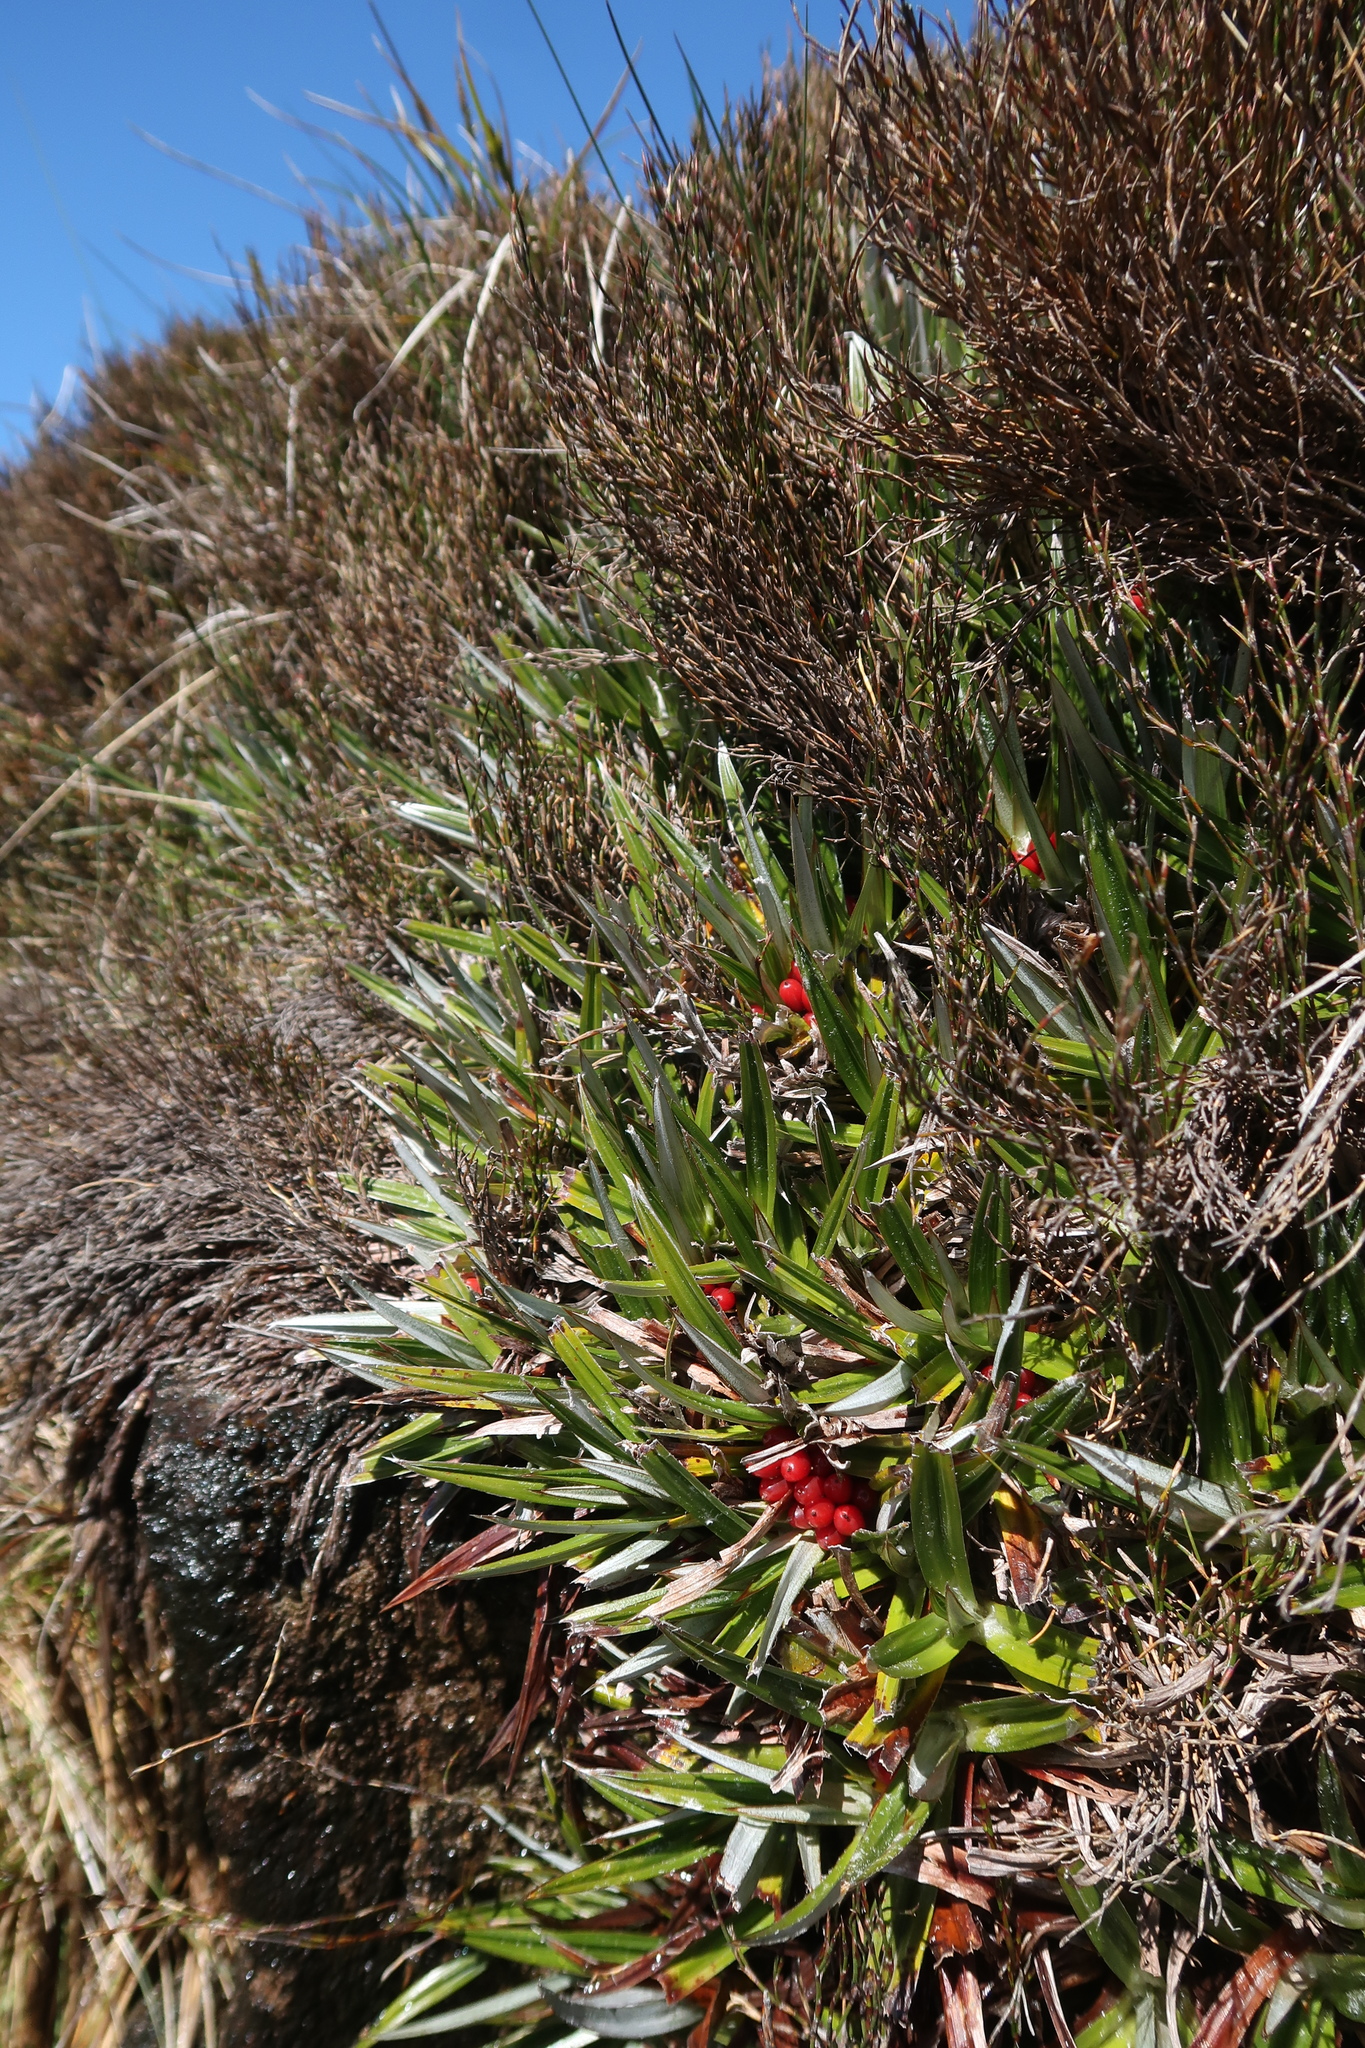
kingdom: Plantae
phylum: Tracheophyta
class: Liliopsida
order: Asparagales
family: Asteliaceae
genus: Astelia
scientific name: Astelia alpina
